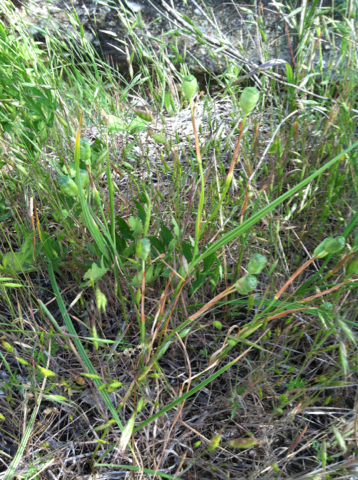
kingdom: Plantae
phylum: Tracheophyta
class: Liliopsida
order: Asparagales
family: Iridaceae
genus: Nemastylis
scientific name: Nemastylis geminiflora
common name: Prairie celestial
